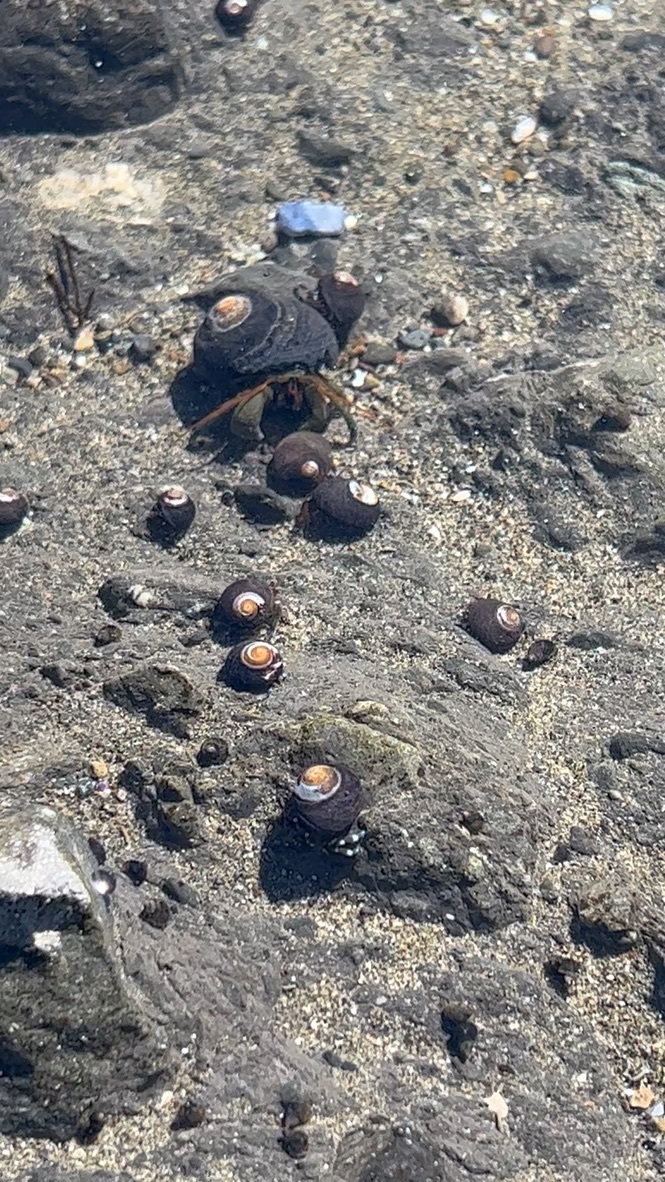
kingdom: Animalia
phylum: Arthropoda
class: Malacostraca
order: Decapoda
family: Paguridae
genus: Pagurus
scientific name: Pagurus samuelis
